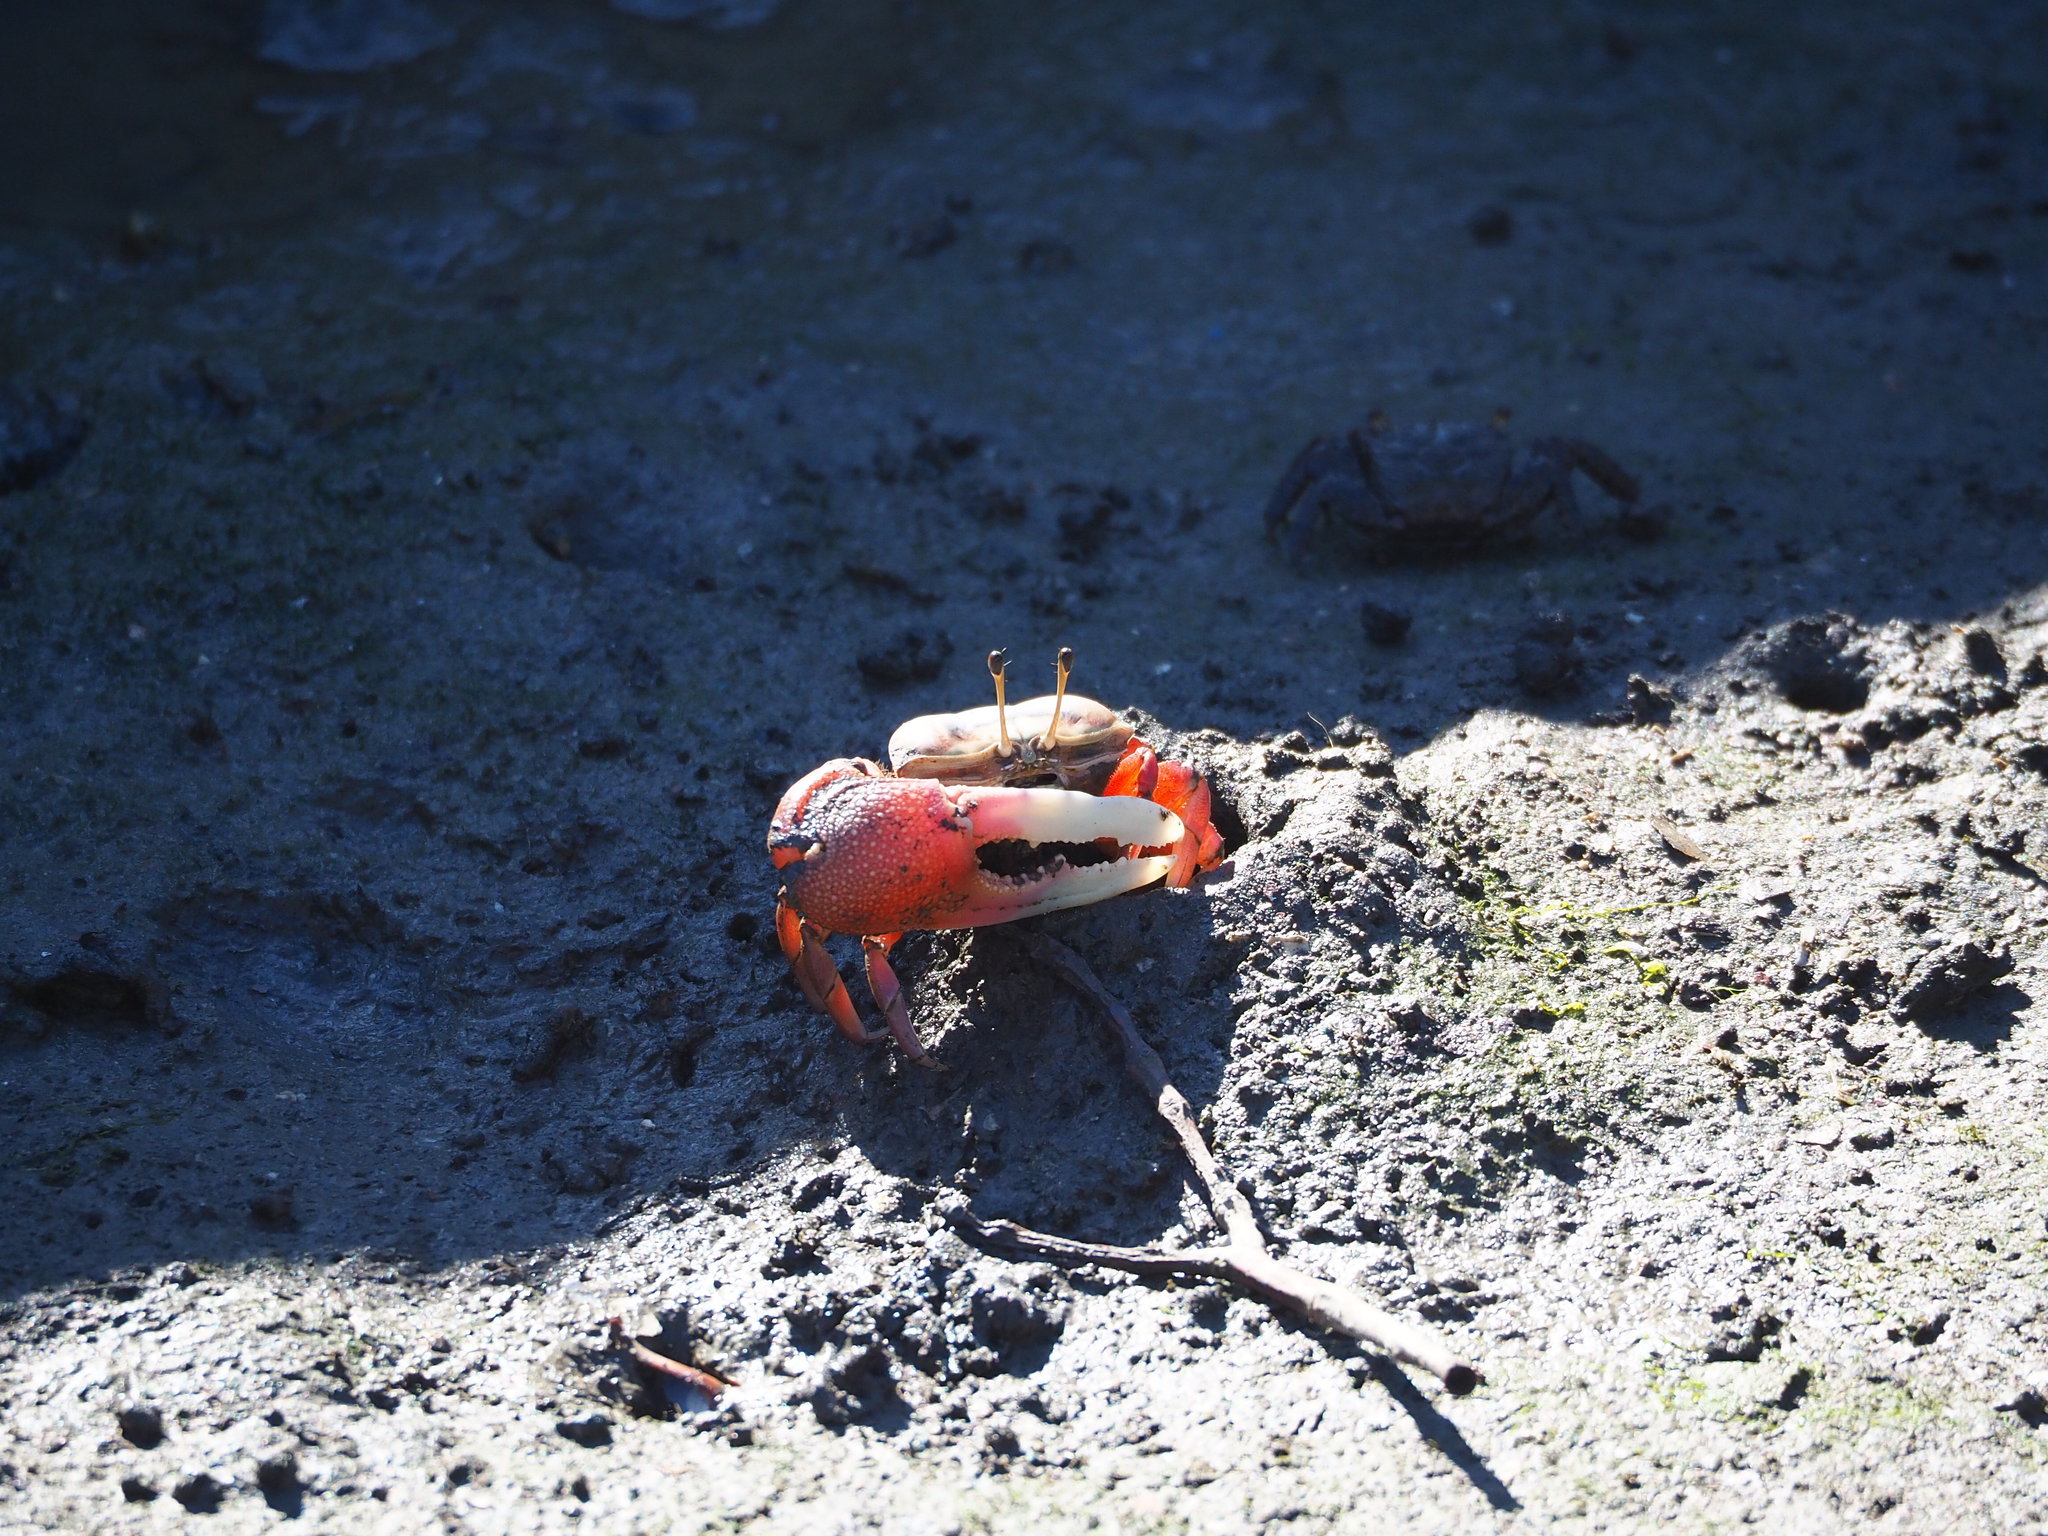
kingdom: Animalia
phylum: Arthropoda
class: Malacostraca
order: Decapoda
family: Ocypodidae
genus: Tubuca
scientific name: Tubuca arcuata
